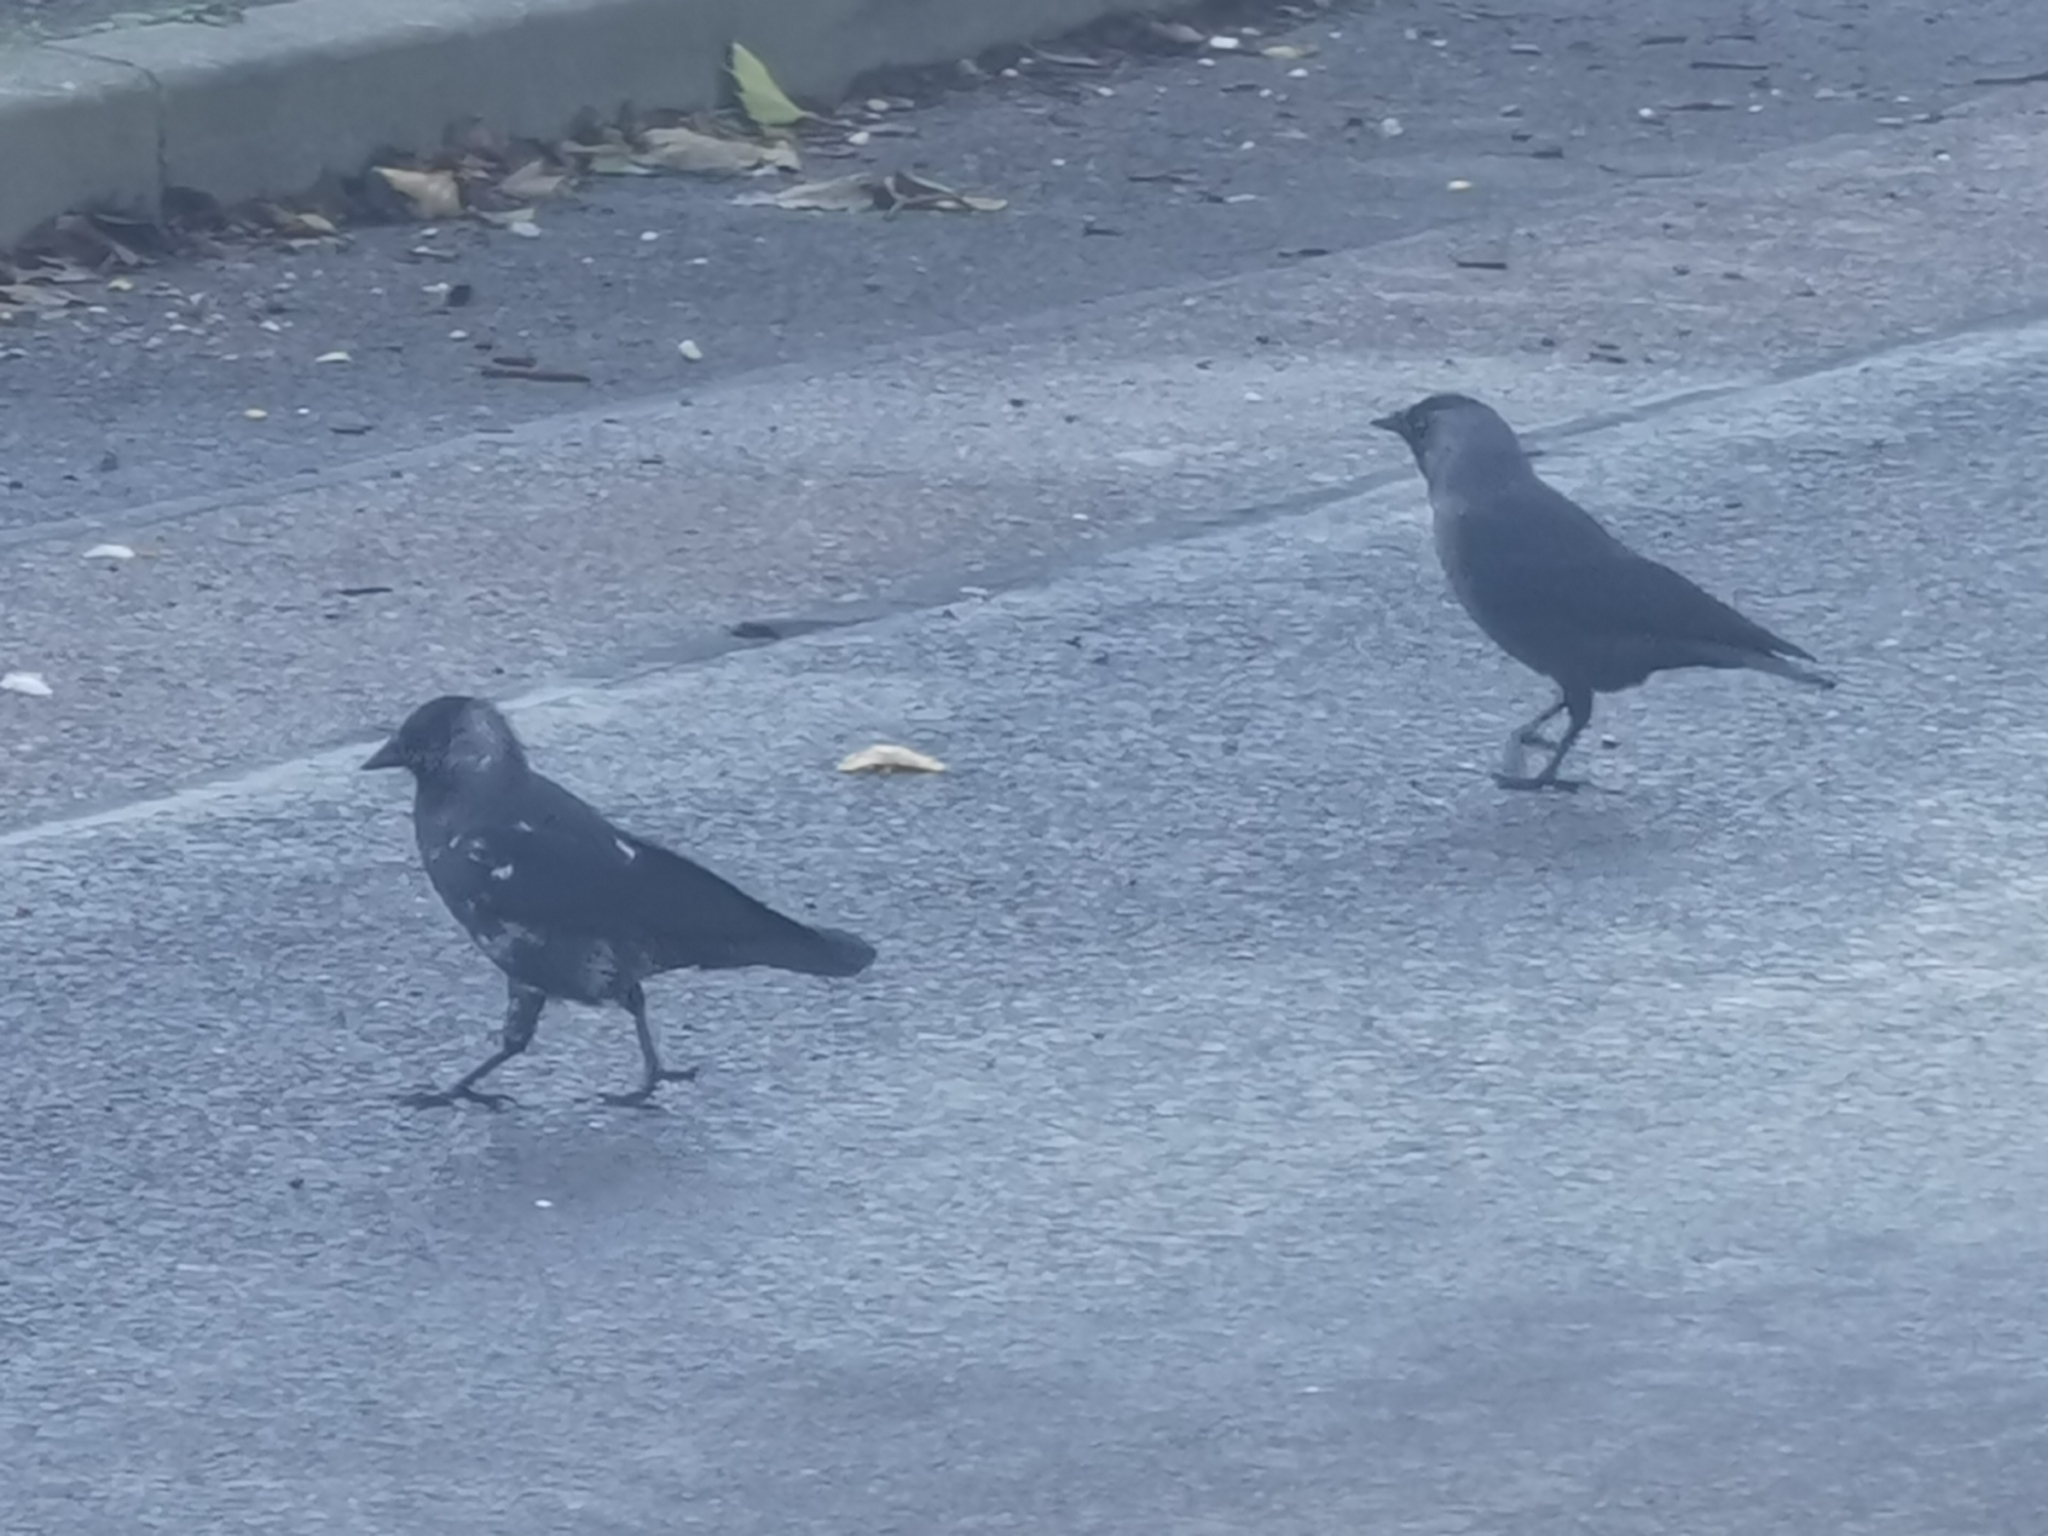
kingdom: Animalia
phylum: Chordata
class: Aves
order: Passeriformes
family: Corvidae
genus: Coloeus
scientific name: Coloeus monedula
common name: Western jackdaw
